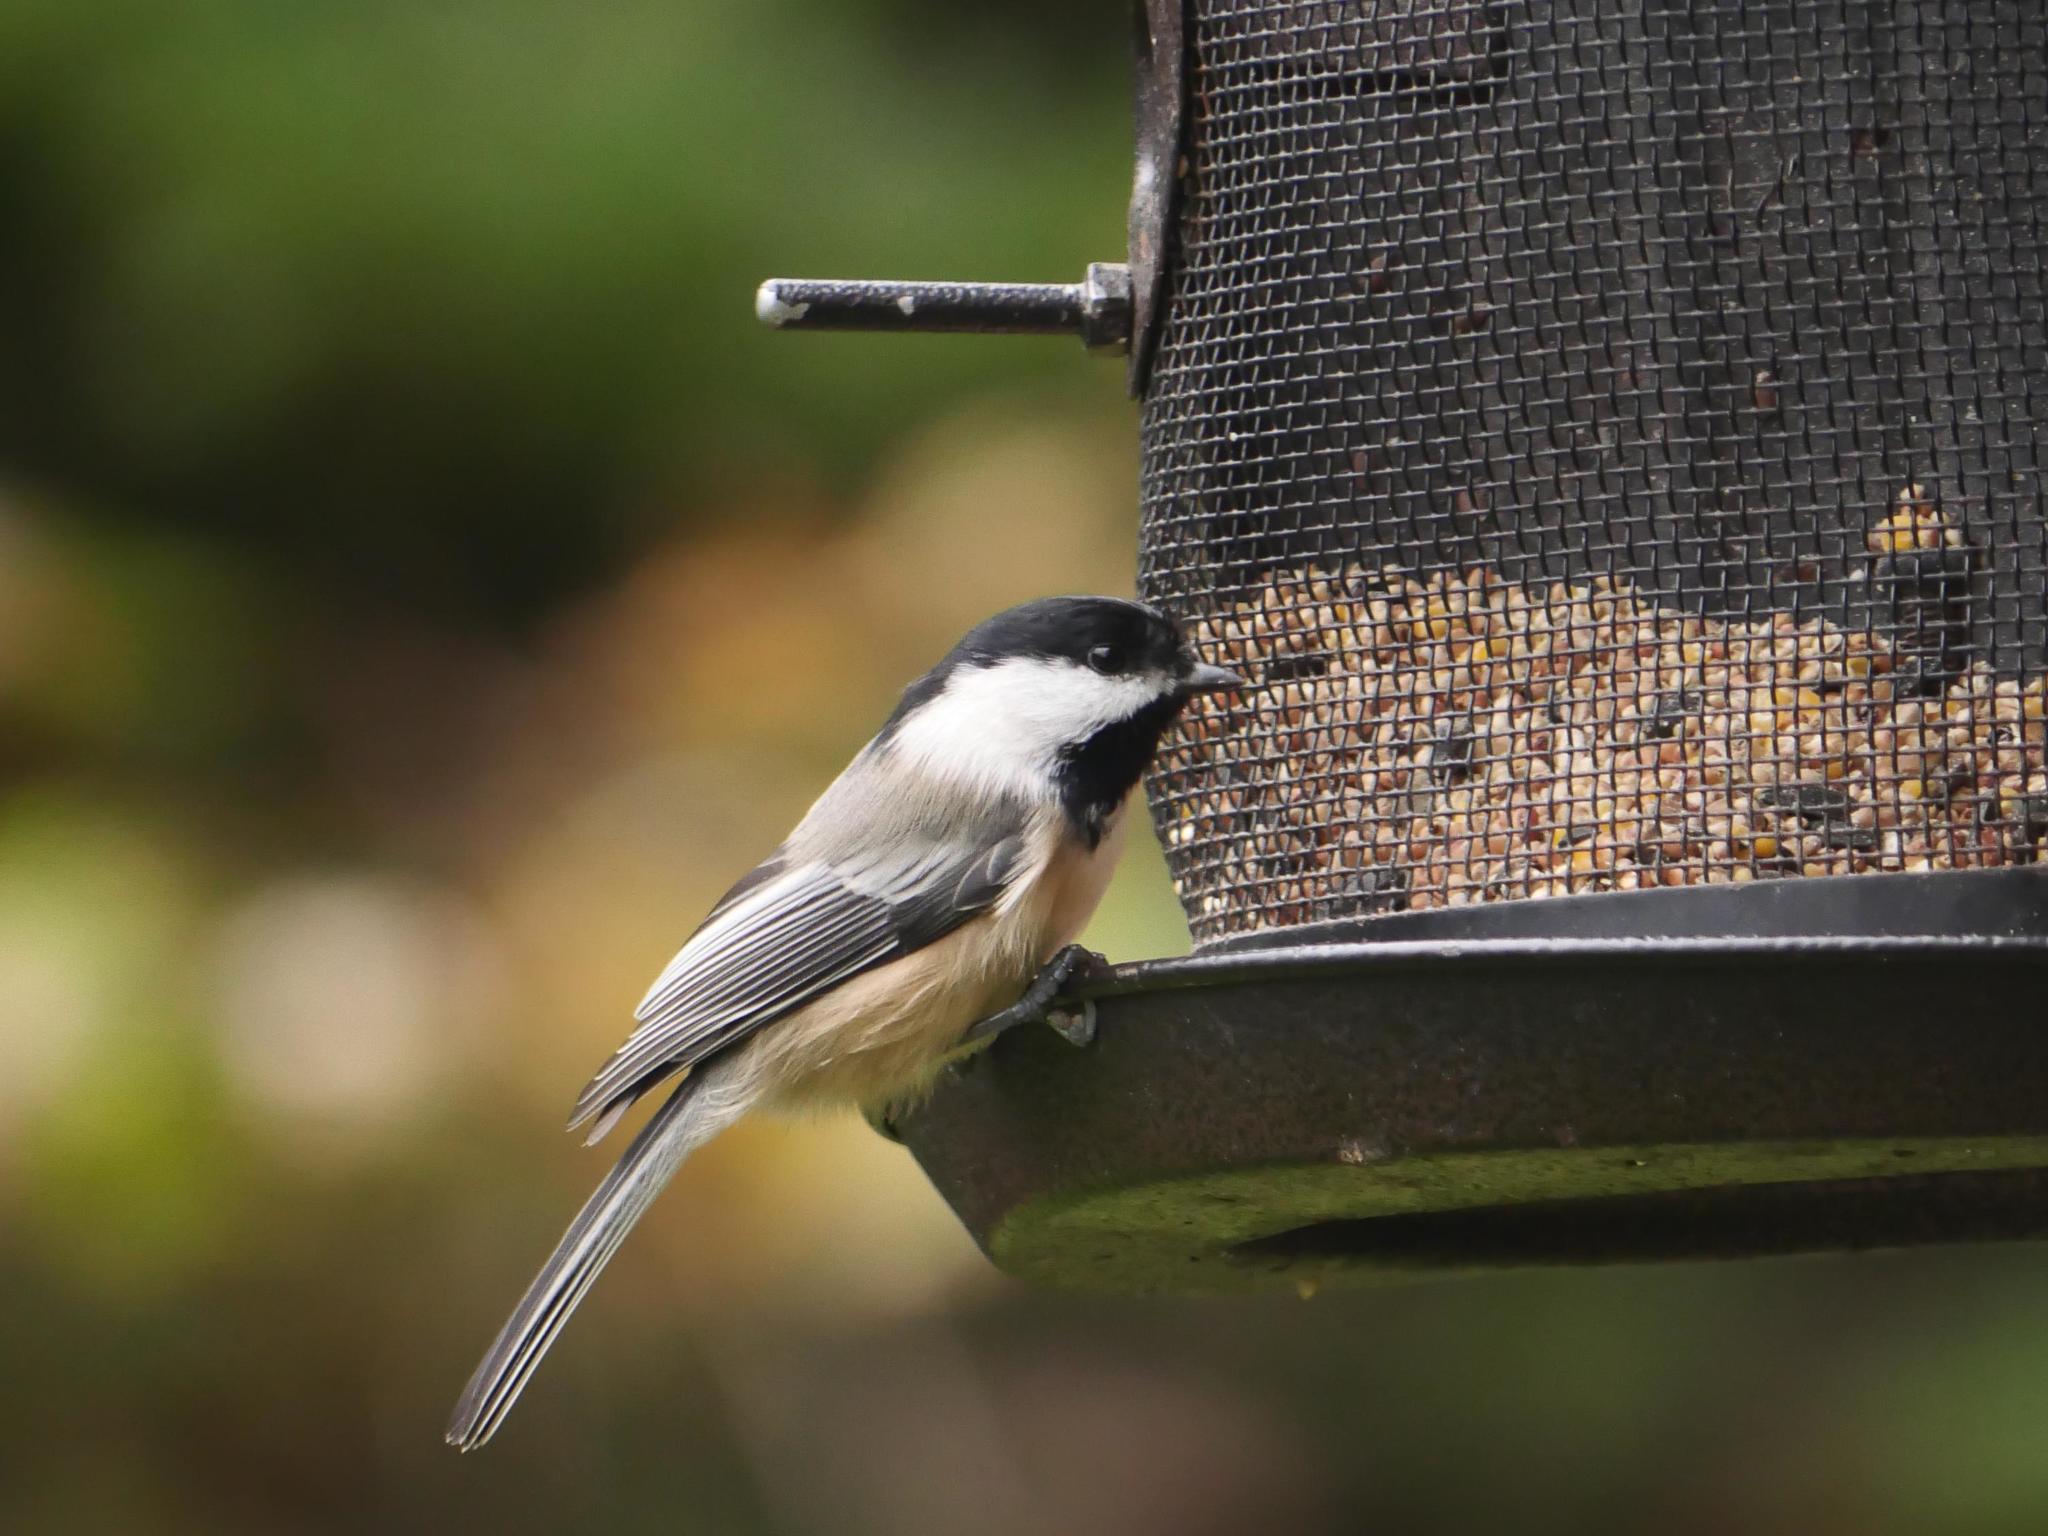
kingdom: Animalia
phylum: Chordata
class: Aves
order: Passeriformes
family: Paridae
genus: Poecile
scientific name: Poecile atricapillus
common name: Black-capped chickadee
